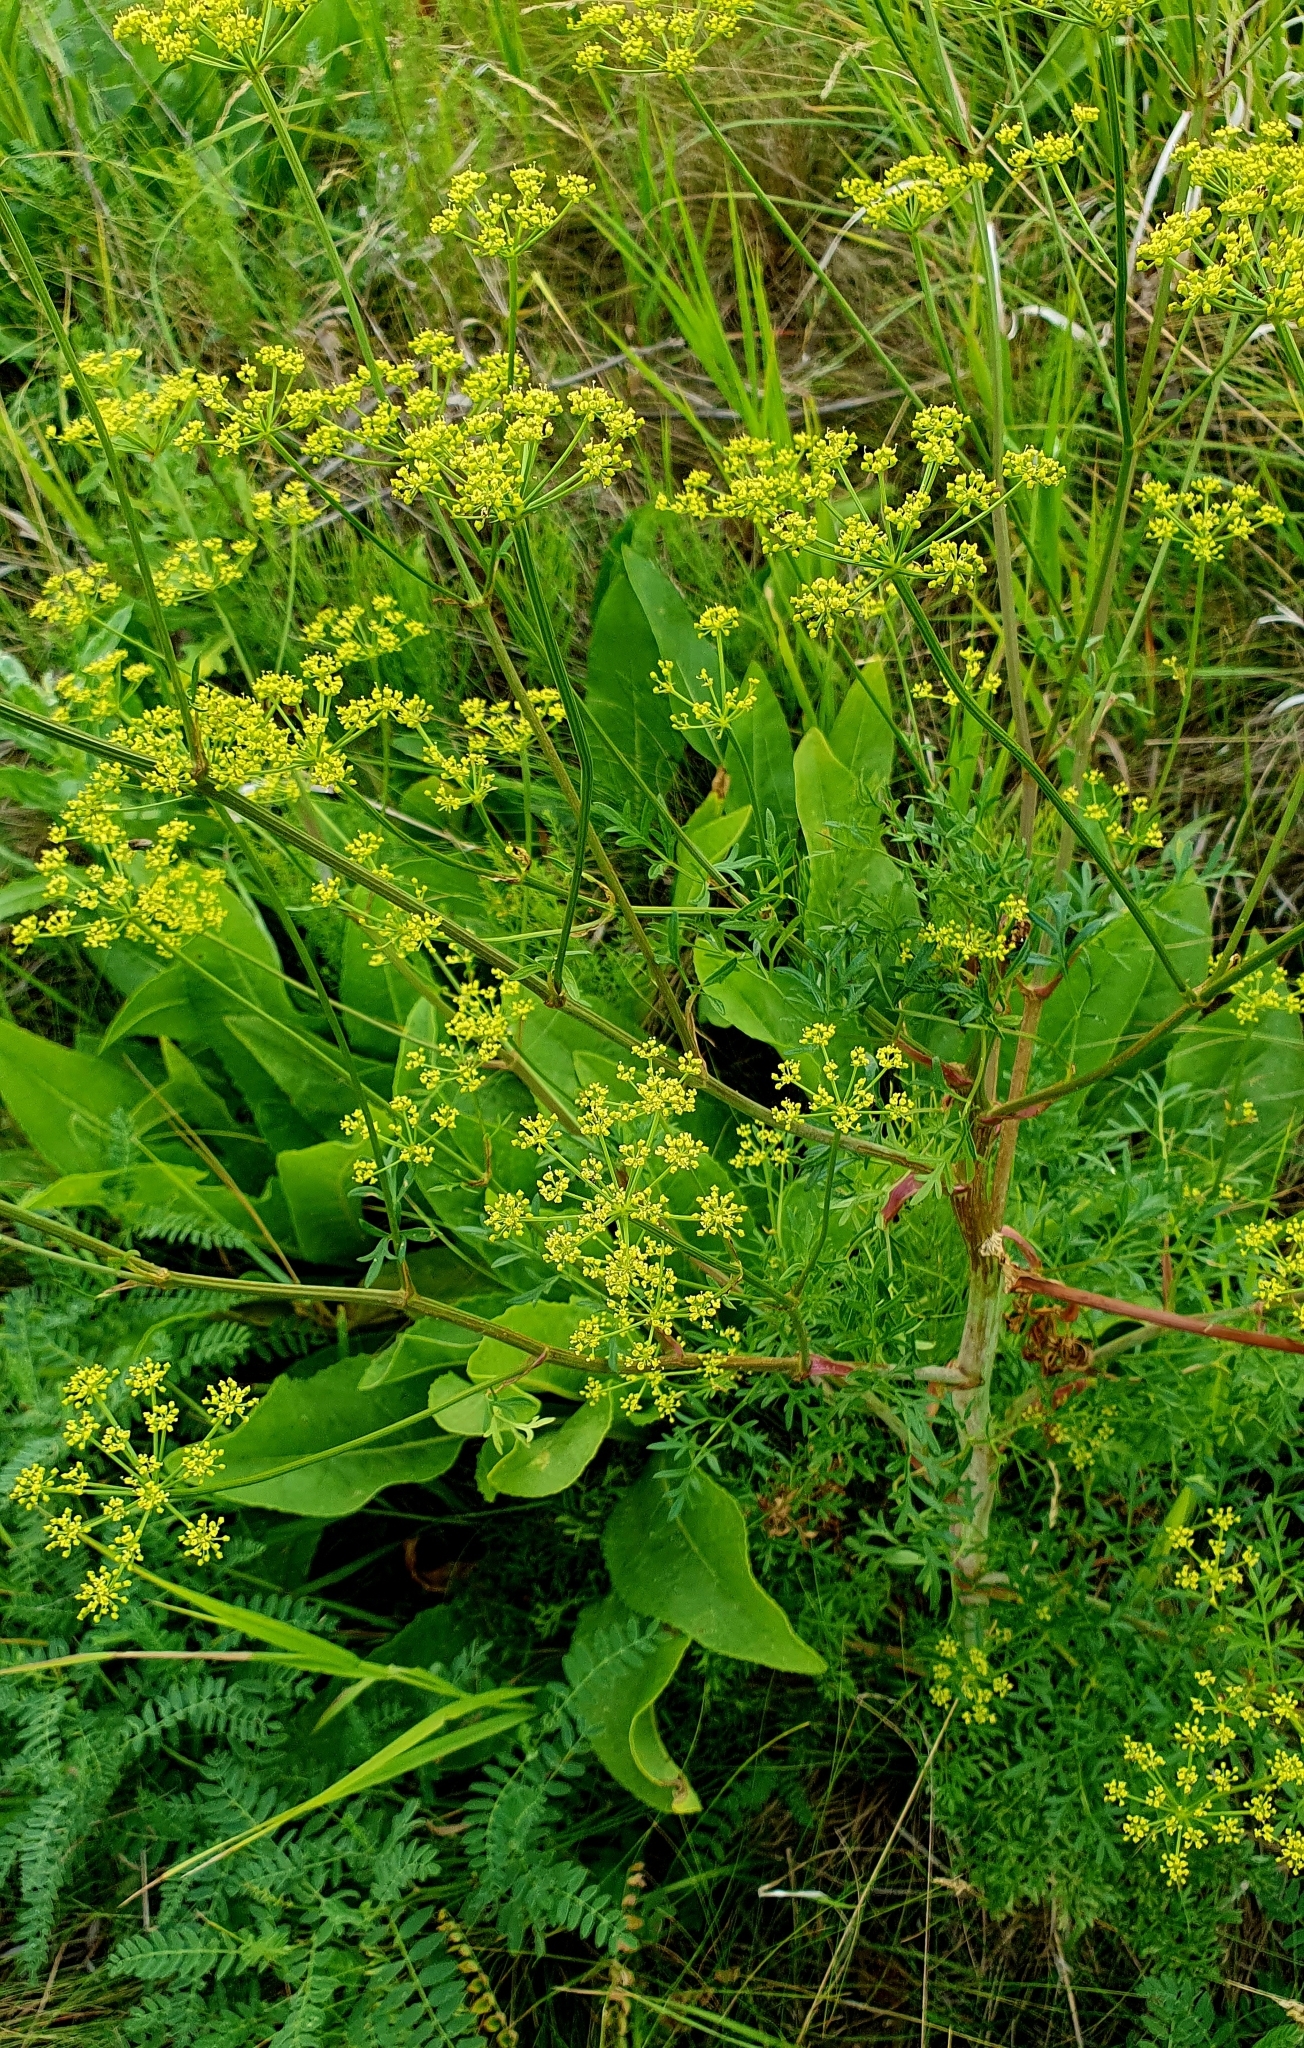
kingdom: Plantae
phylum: Tracheophyta
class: Magnoliopsida
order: Apiales
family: Apiaceae
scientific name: Apiaceae
